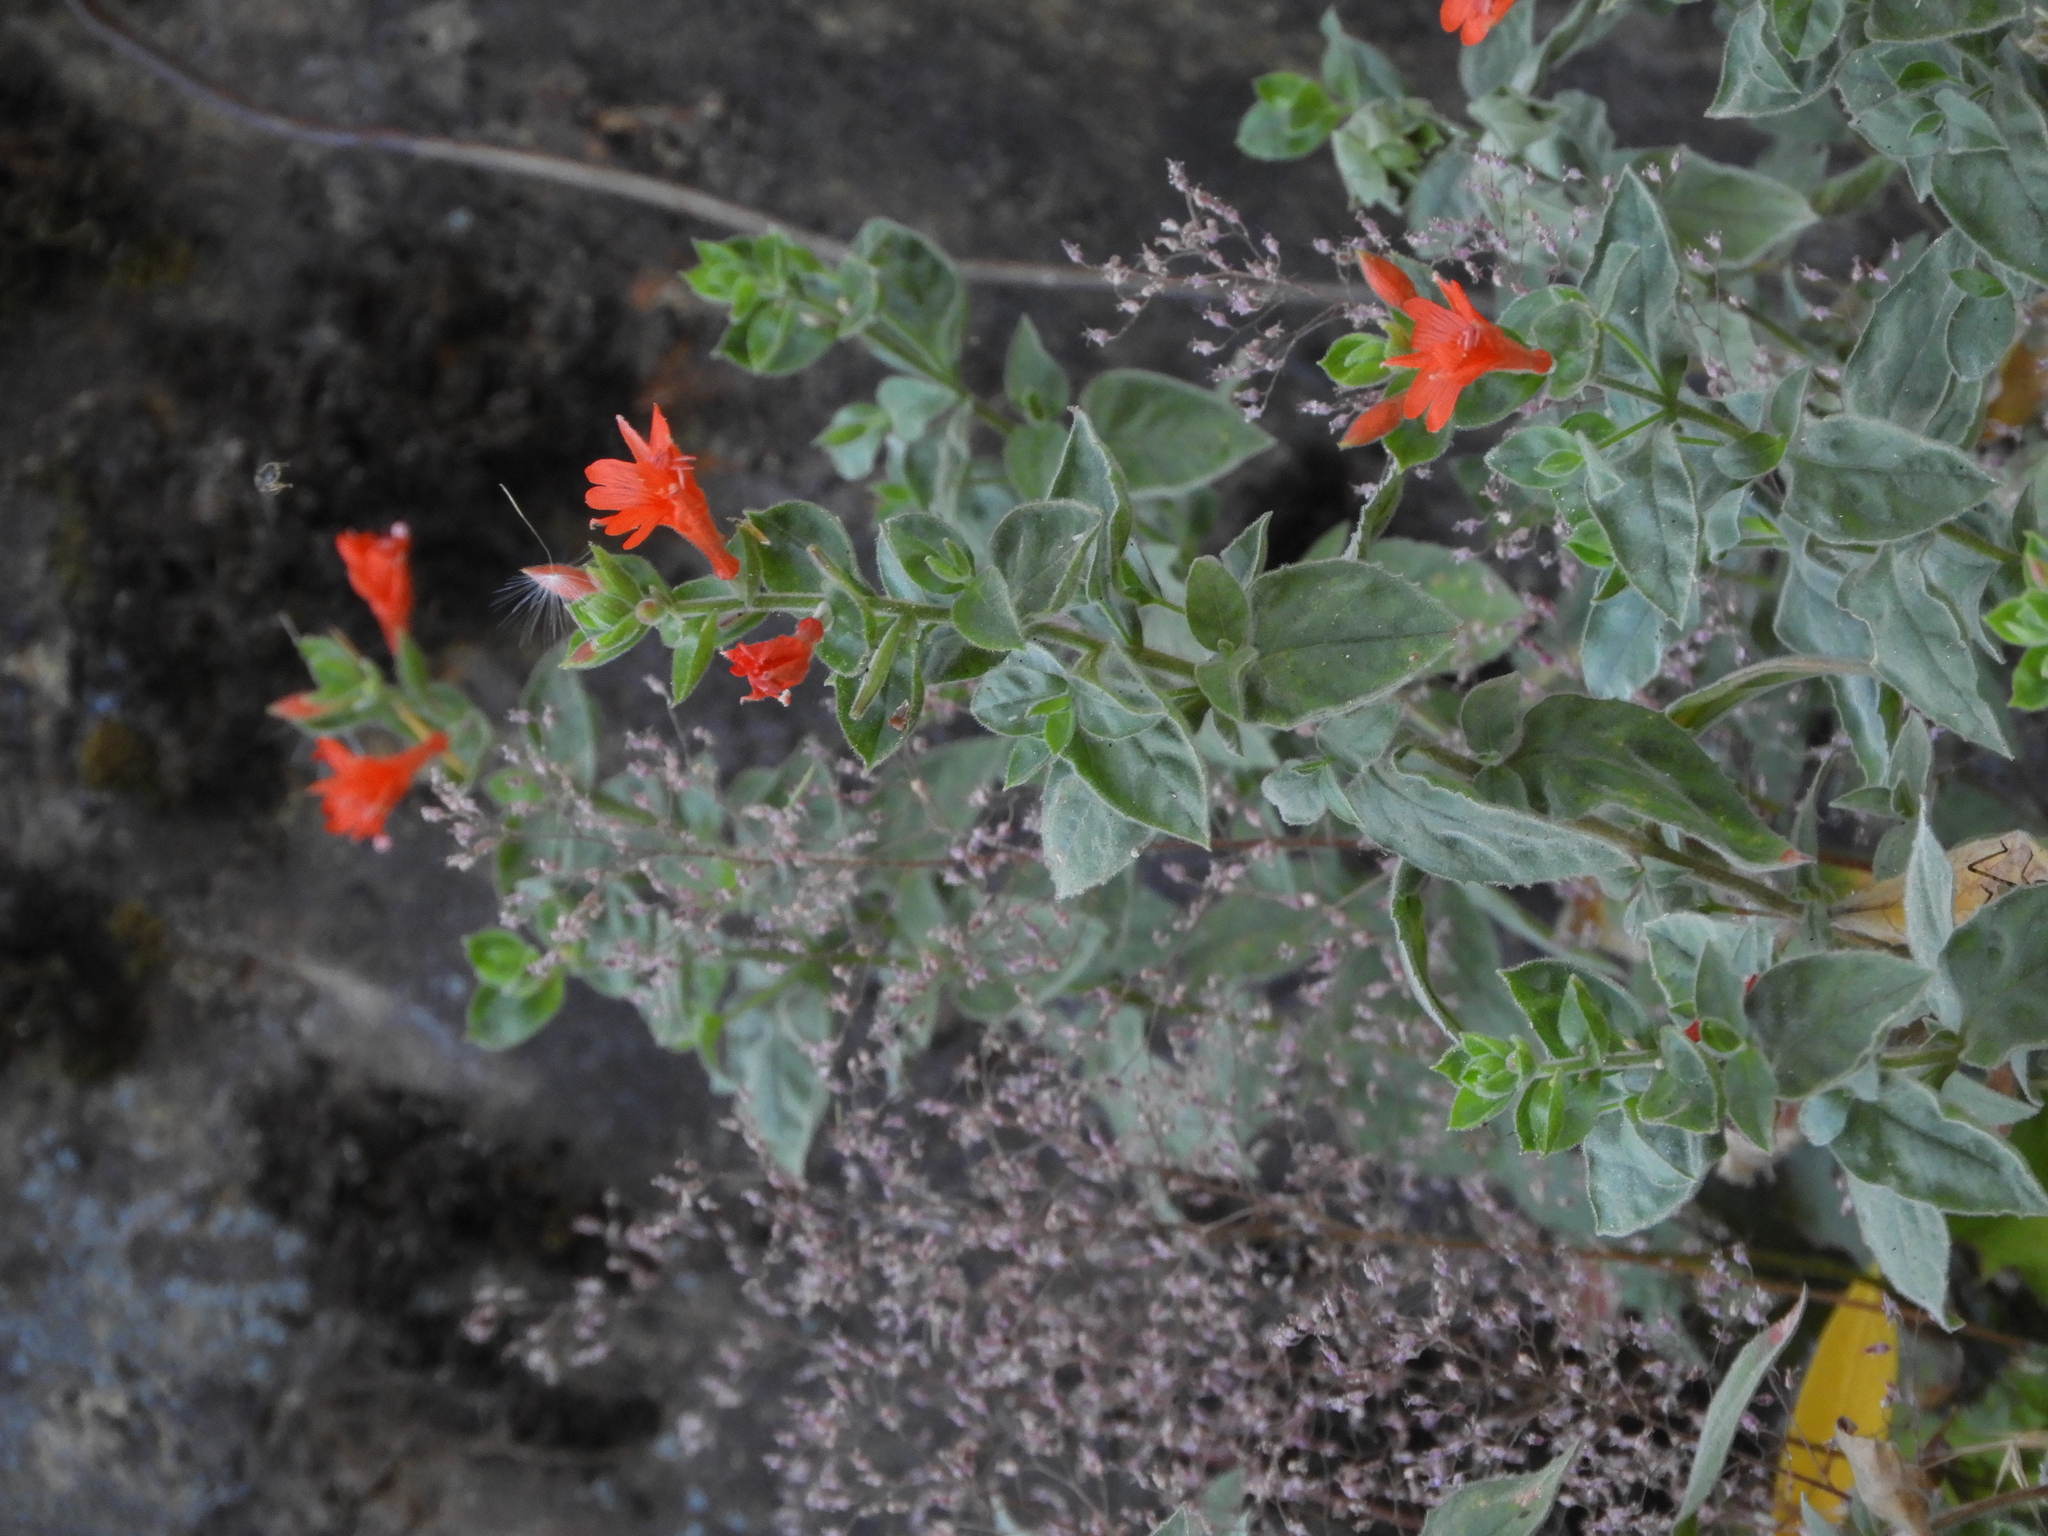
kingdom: Plantae
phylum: Tracheophyta
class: Magnoliopsida
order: Myrtales
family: Onagraceae
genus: Epilobium
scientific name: Epilobium canum
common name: California-fuchsia
